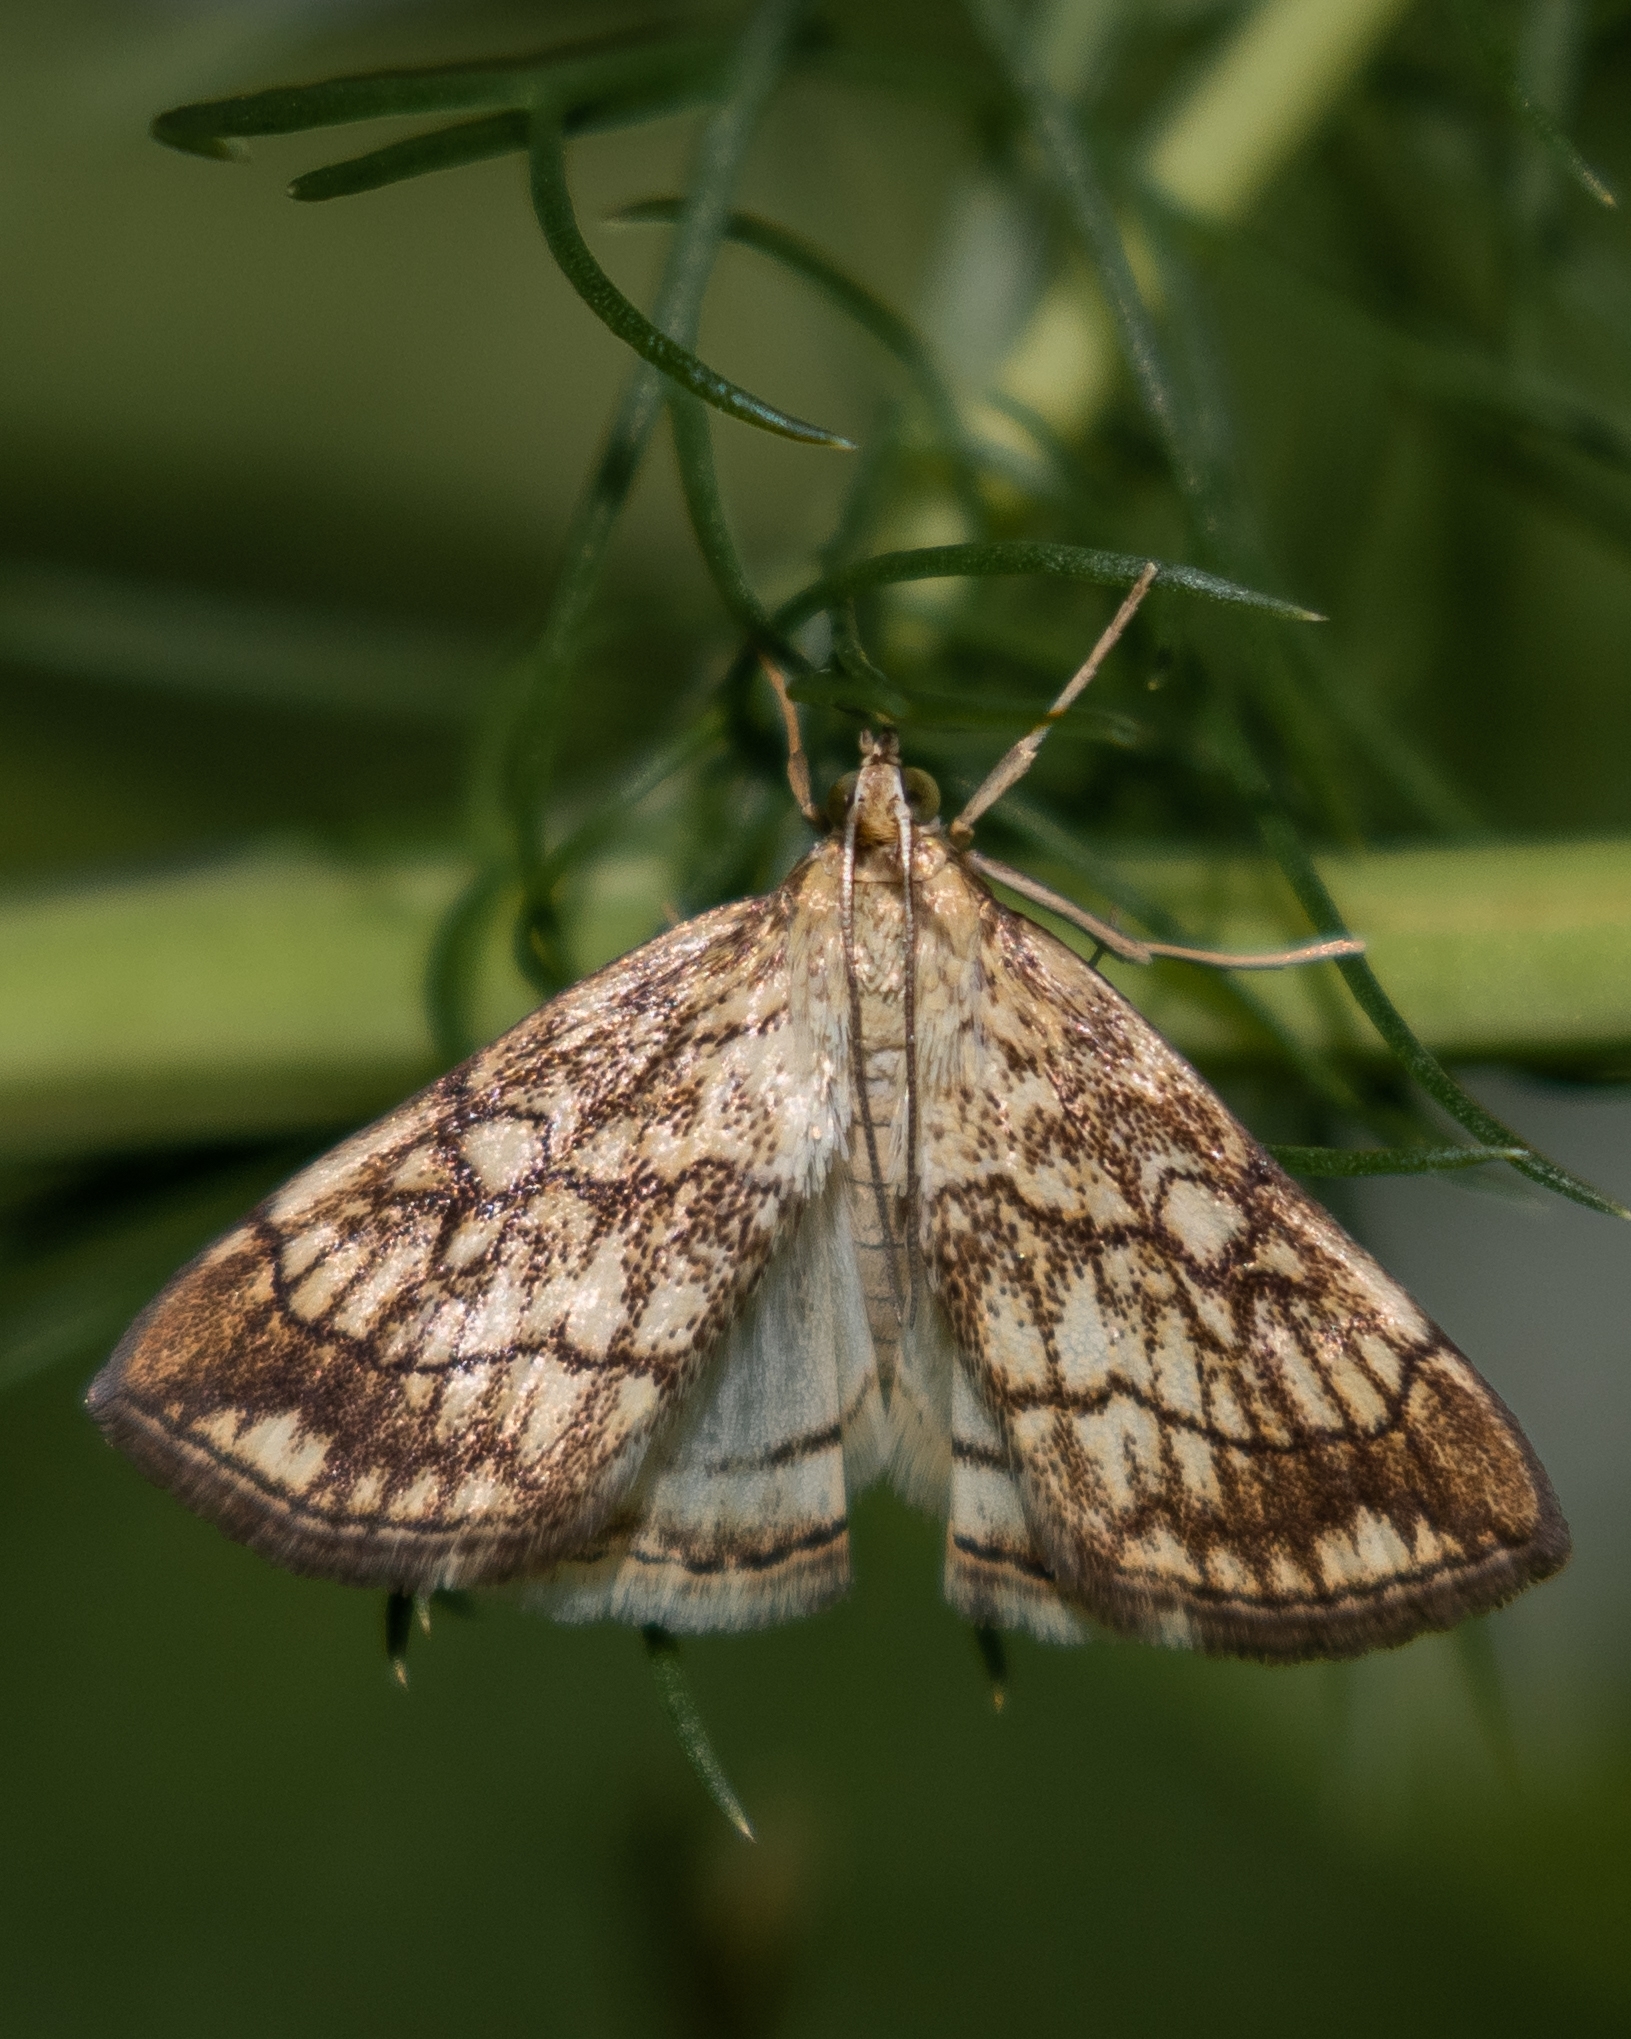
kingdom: Animalia
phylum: Arthropoda
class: Insecta
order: Lepidoptera
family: Crambidae
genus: Evergestis
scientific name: Evergestis pallidata
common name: Chequered pearl
